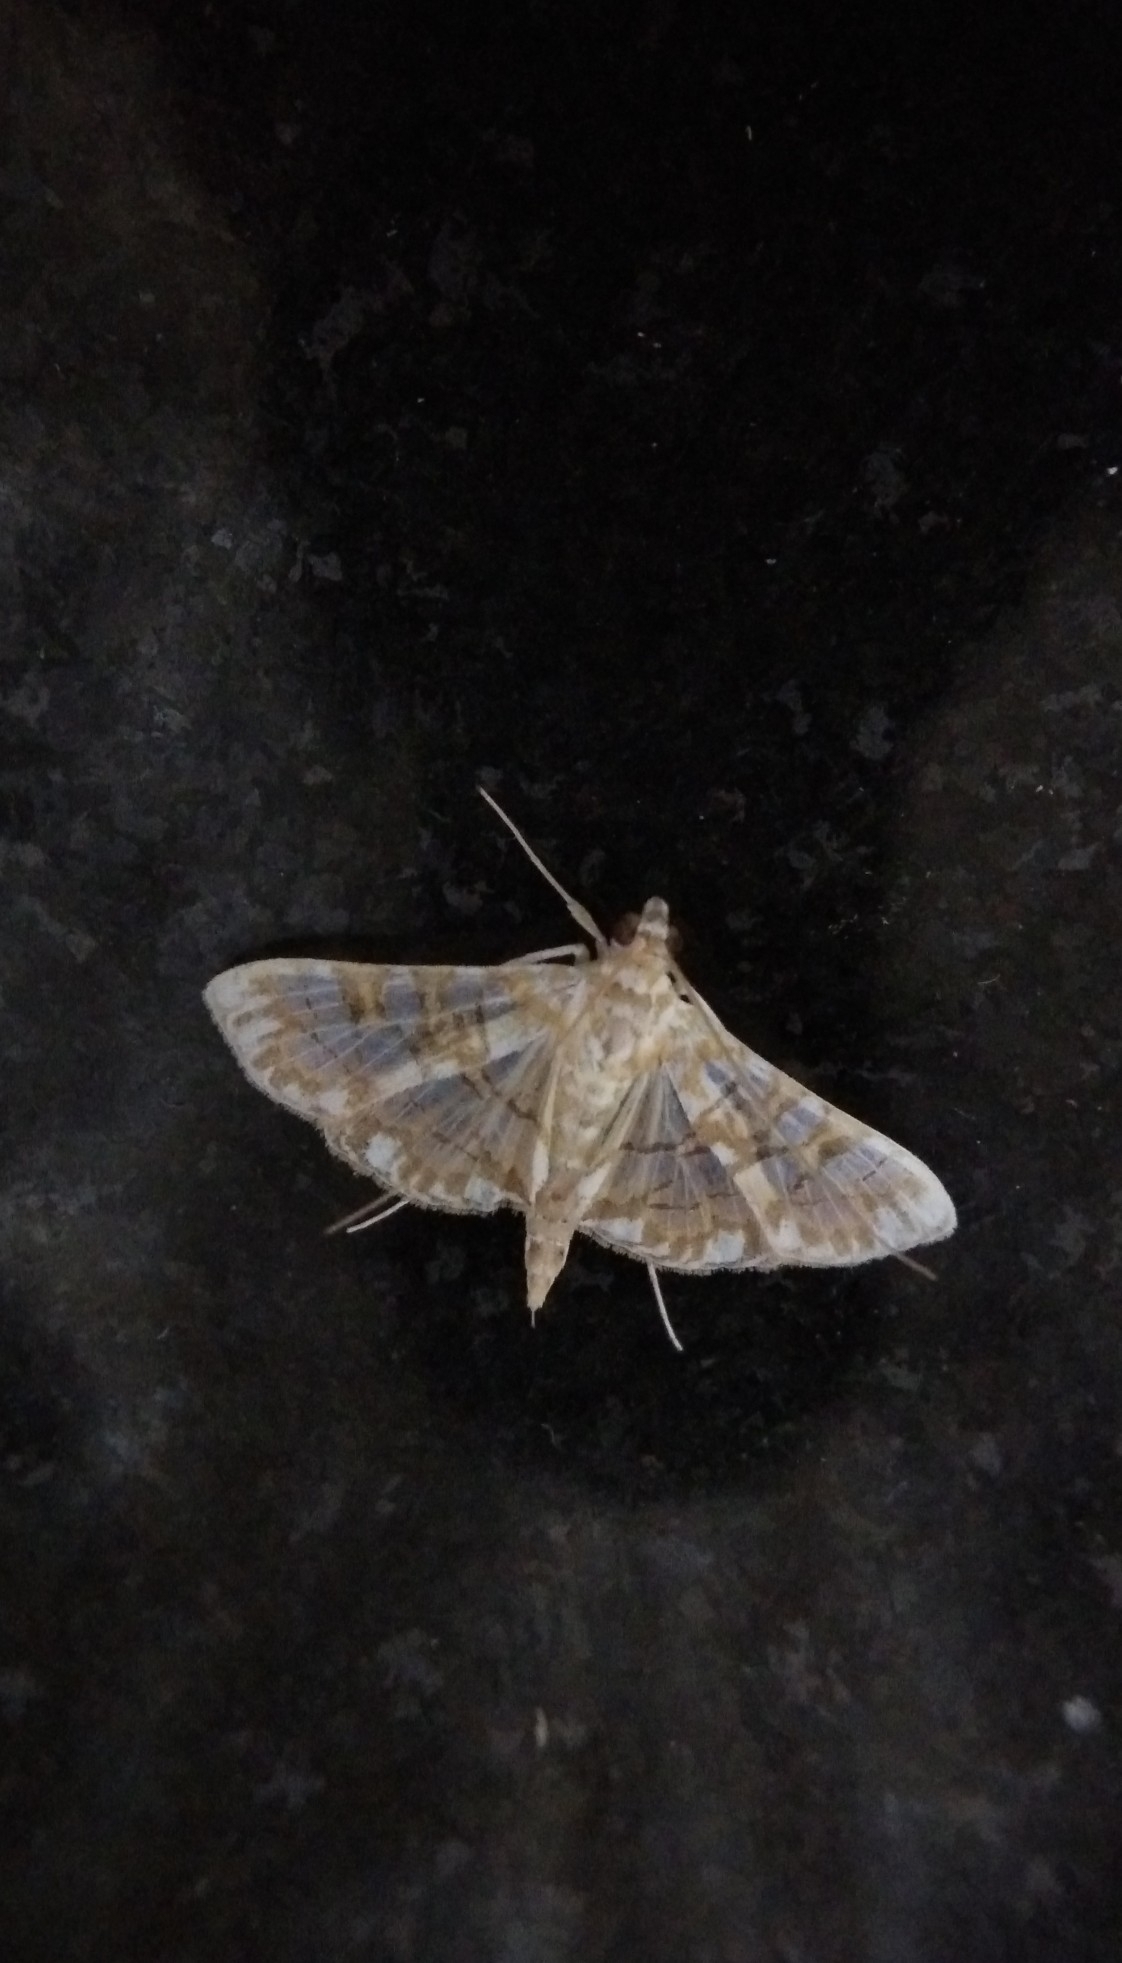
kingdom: Animalia
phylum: Arthropoda
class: Insecta
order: Lepidoptera
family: Crambidae
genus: Synclera
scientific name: Synclera traducalis
